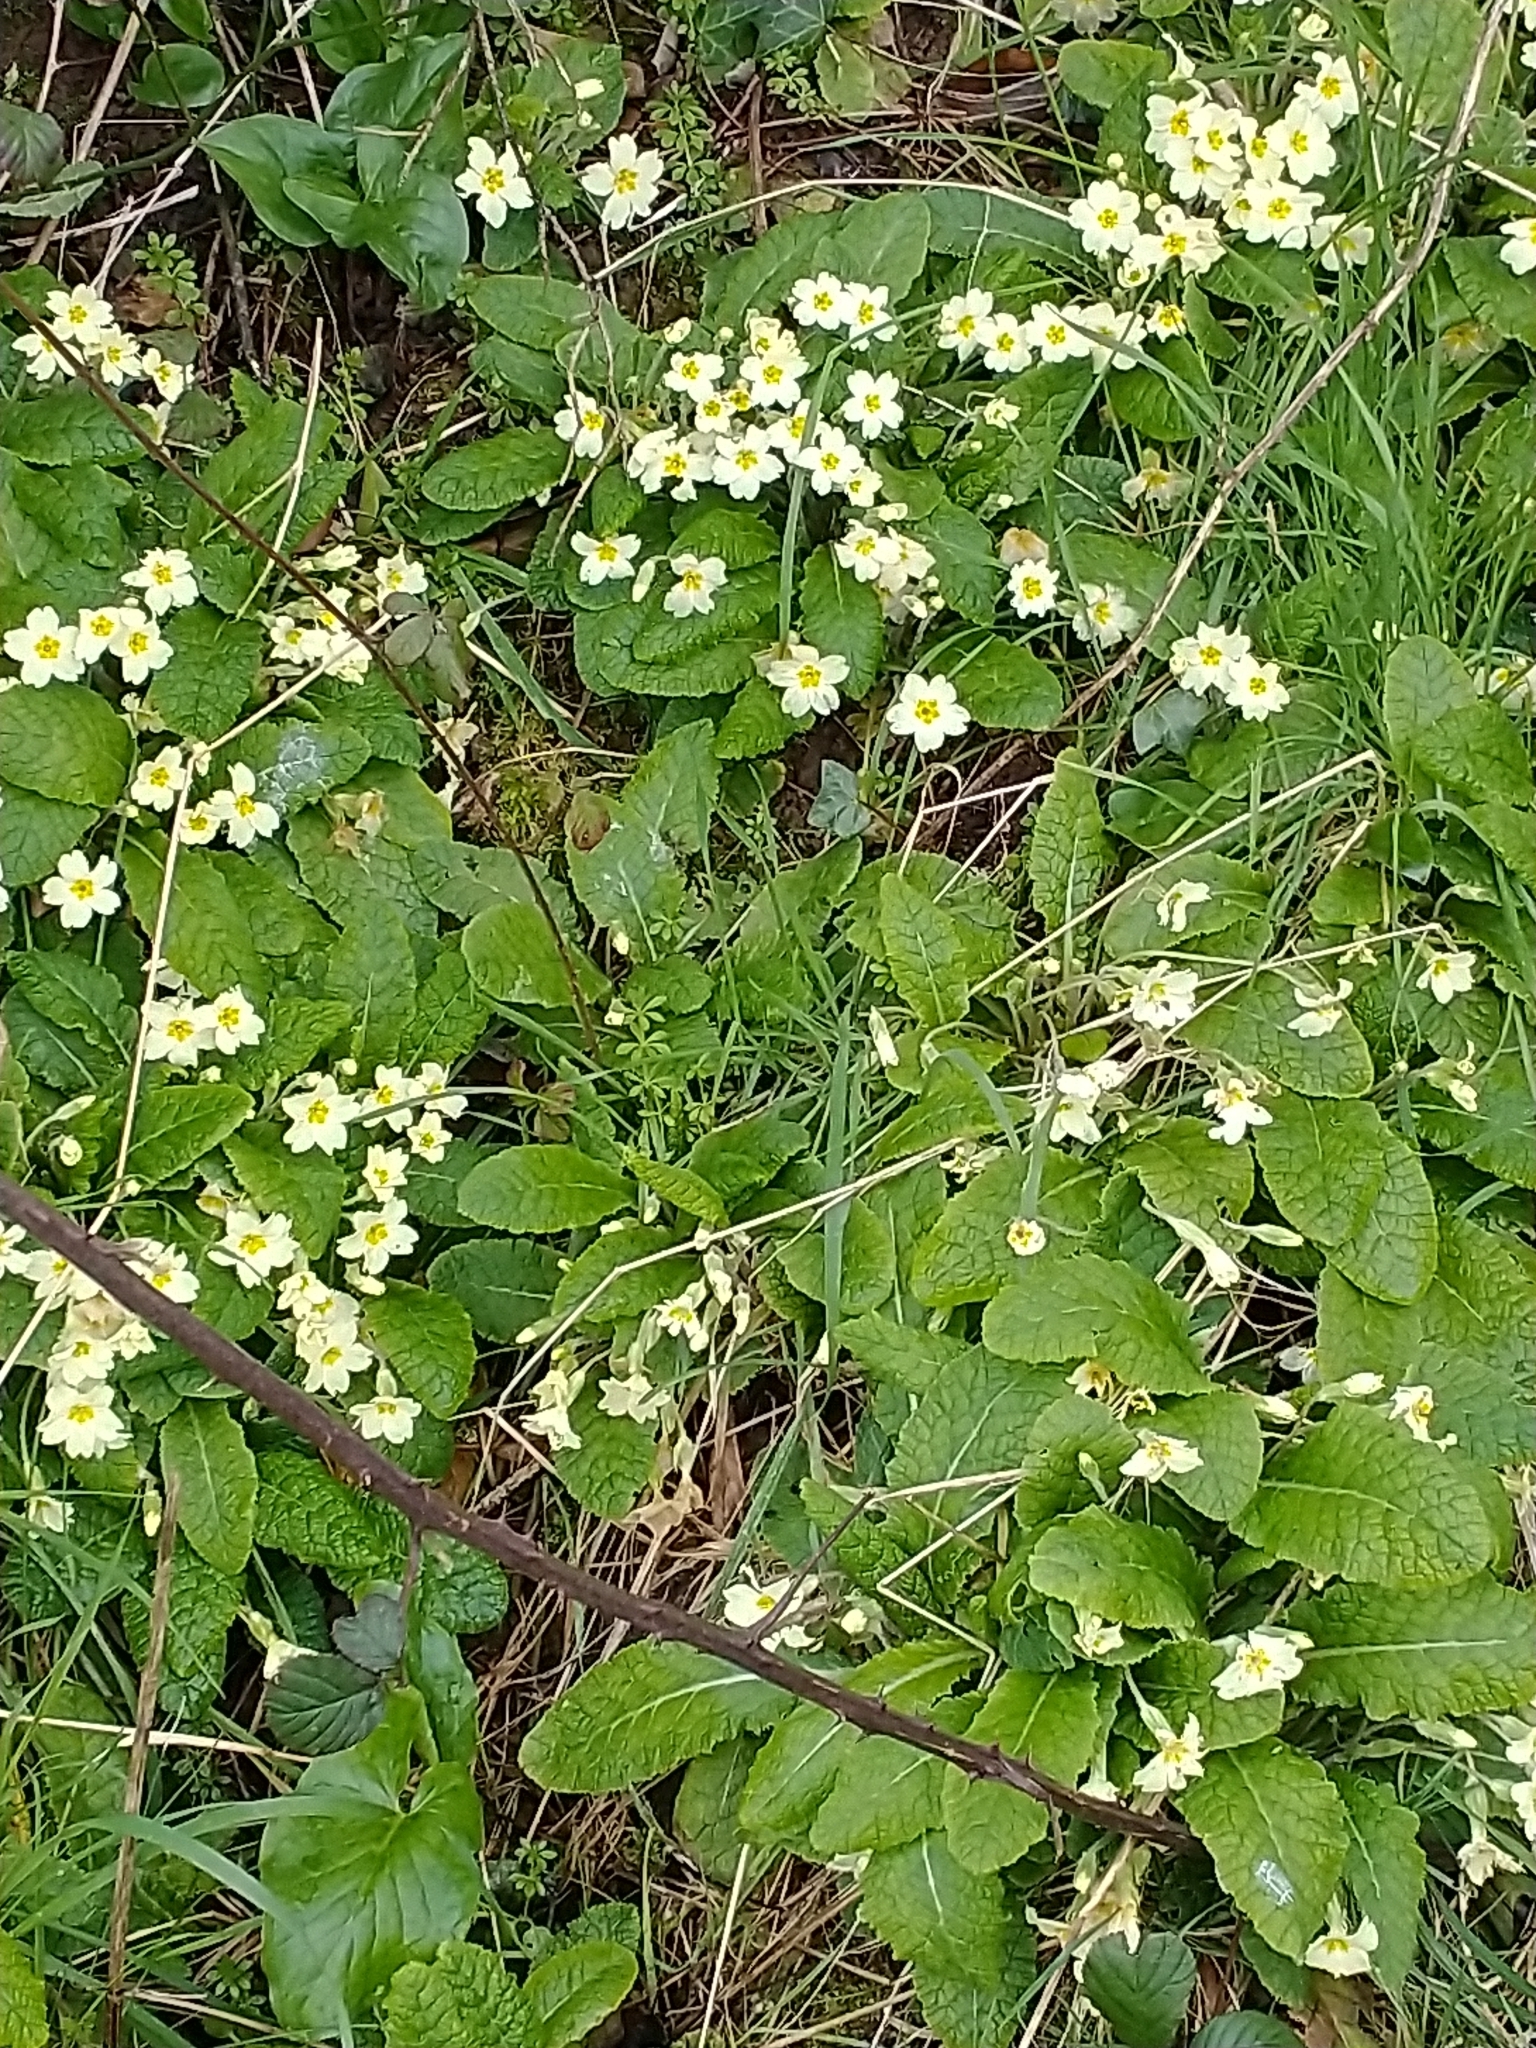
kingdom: Plantae
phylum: Tracheophyta
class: Magnoliopsida
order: Ericales
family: Primulaceae
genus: Primula
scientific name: Primula vulgaris
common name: Primrose
